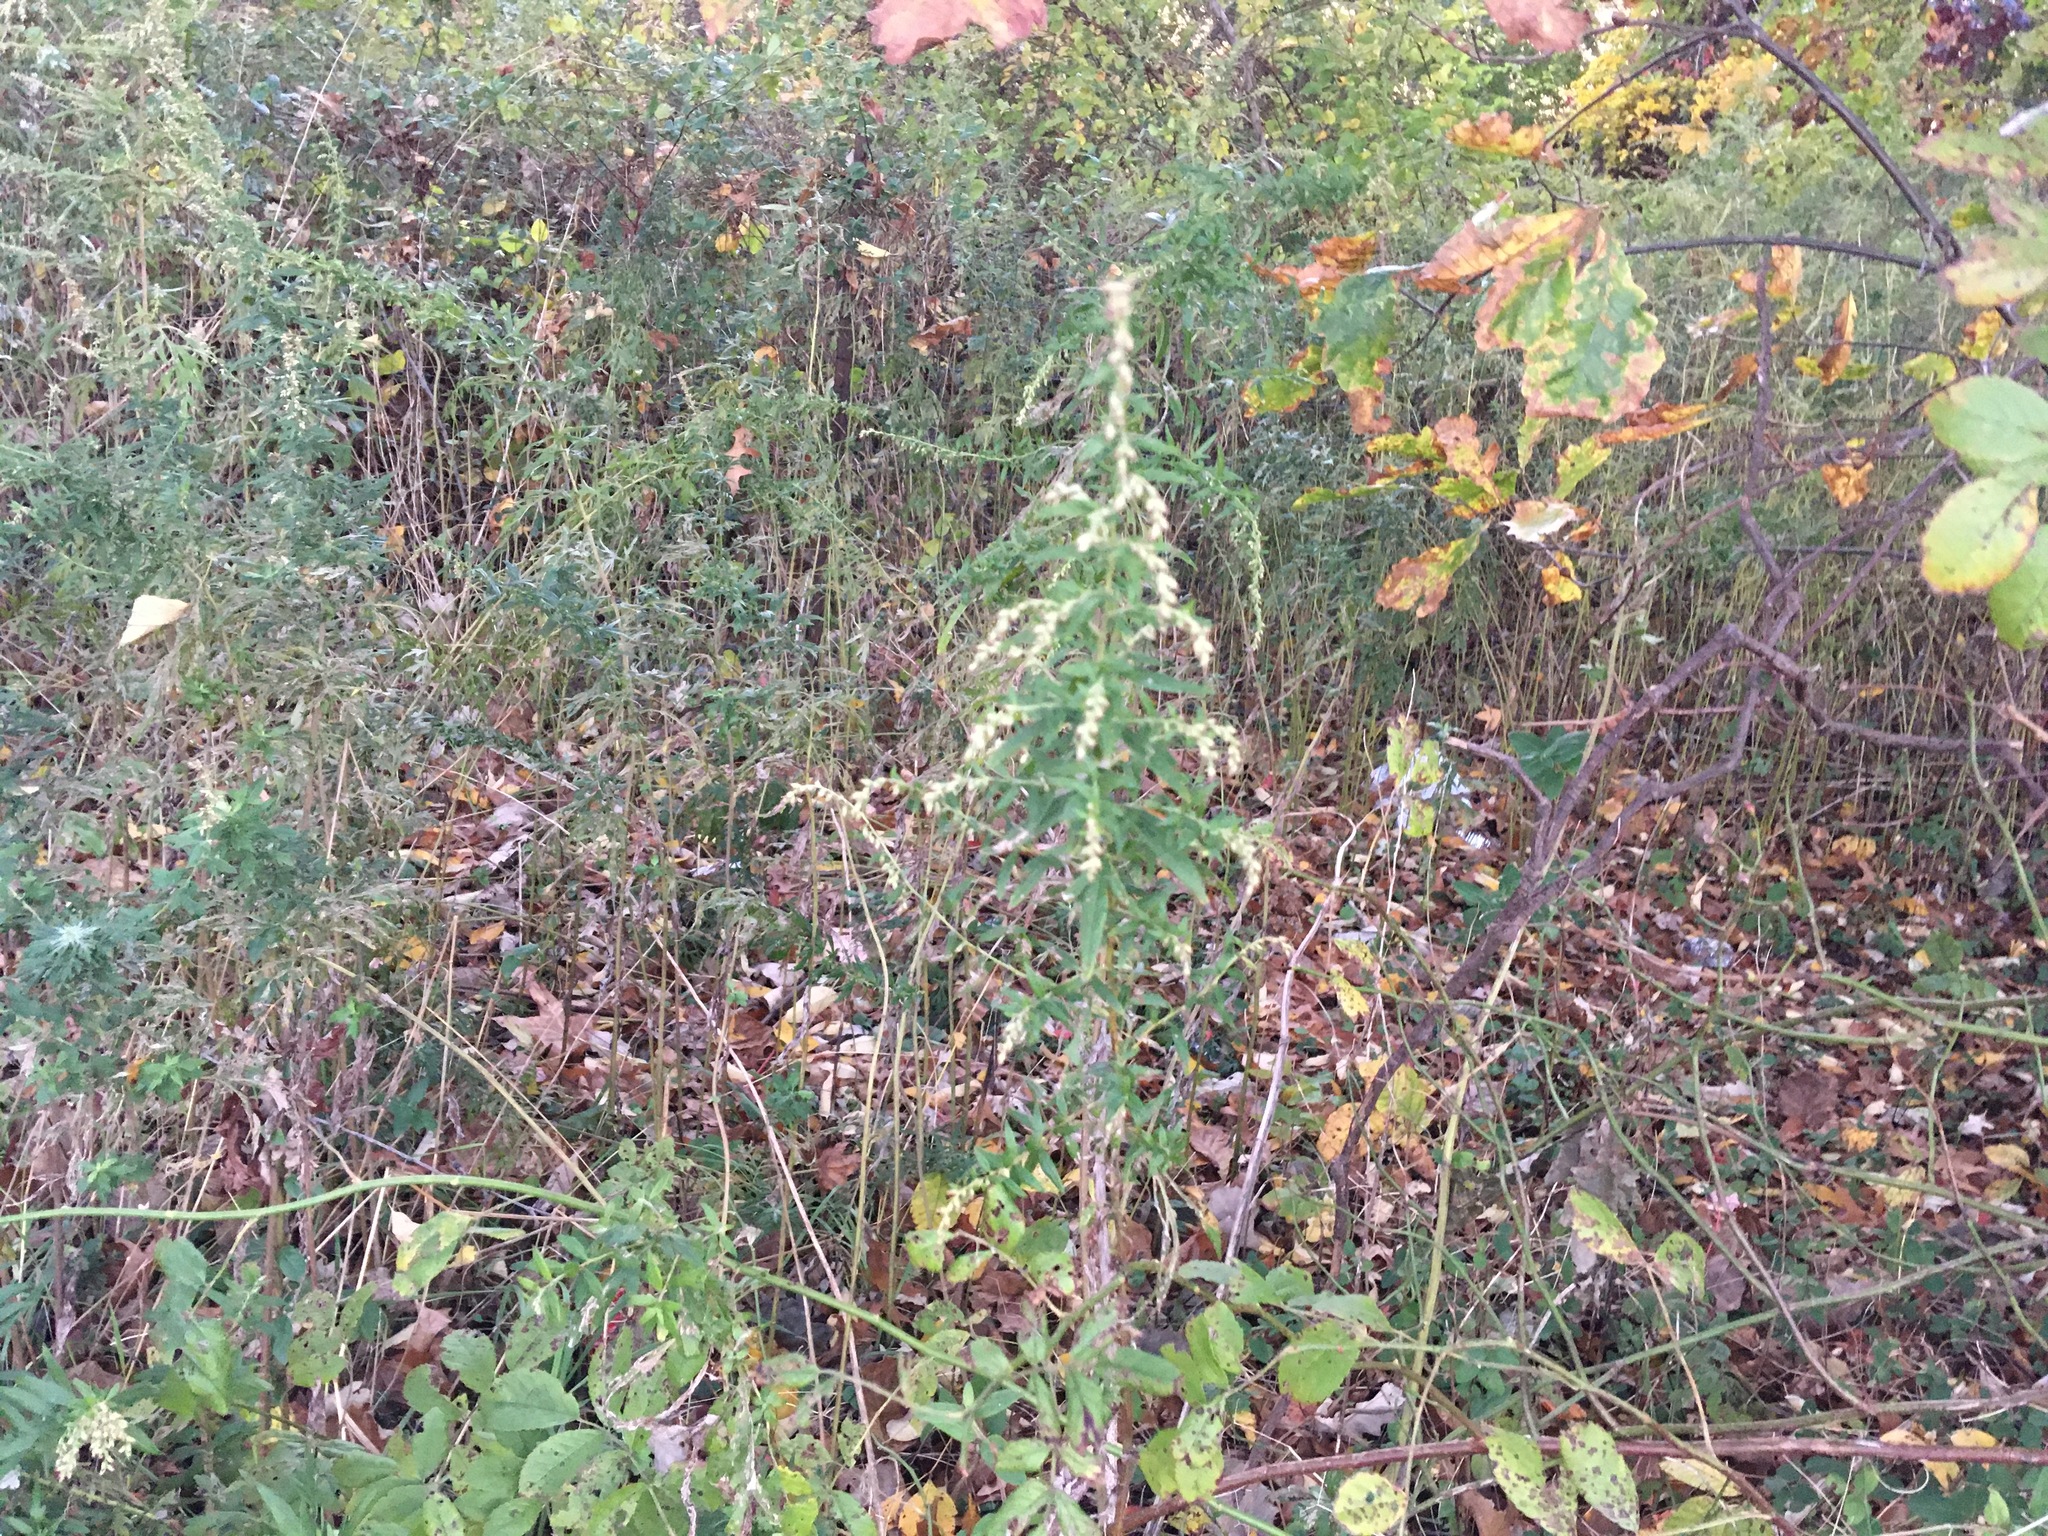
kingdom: Plantae
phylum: Tracheophyta
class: Magnoliopsida
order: Asterales
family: Asteraceae
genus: Artemisia
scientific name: Artemisia vulgaris
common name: Mugwort
